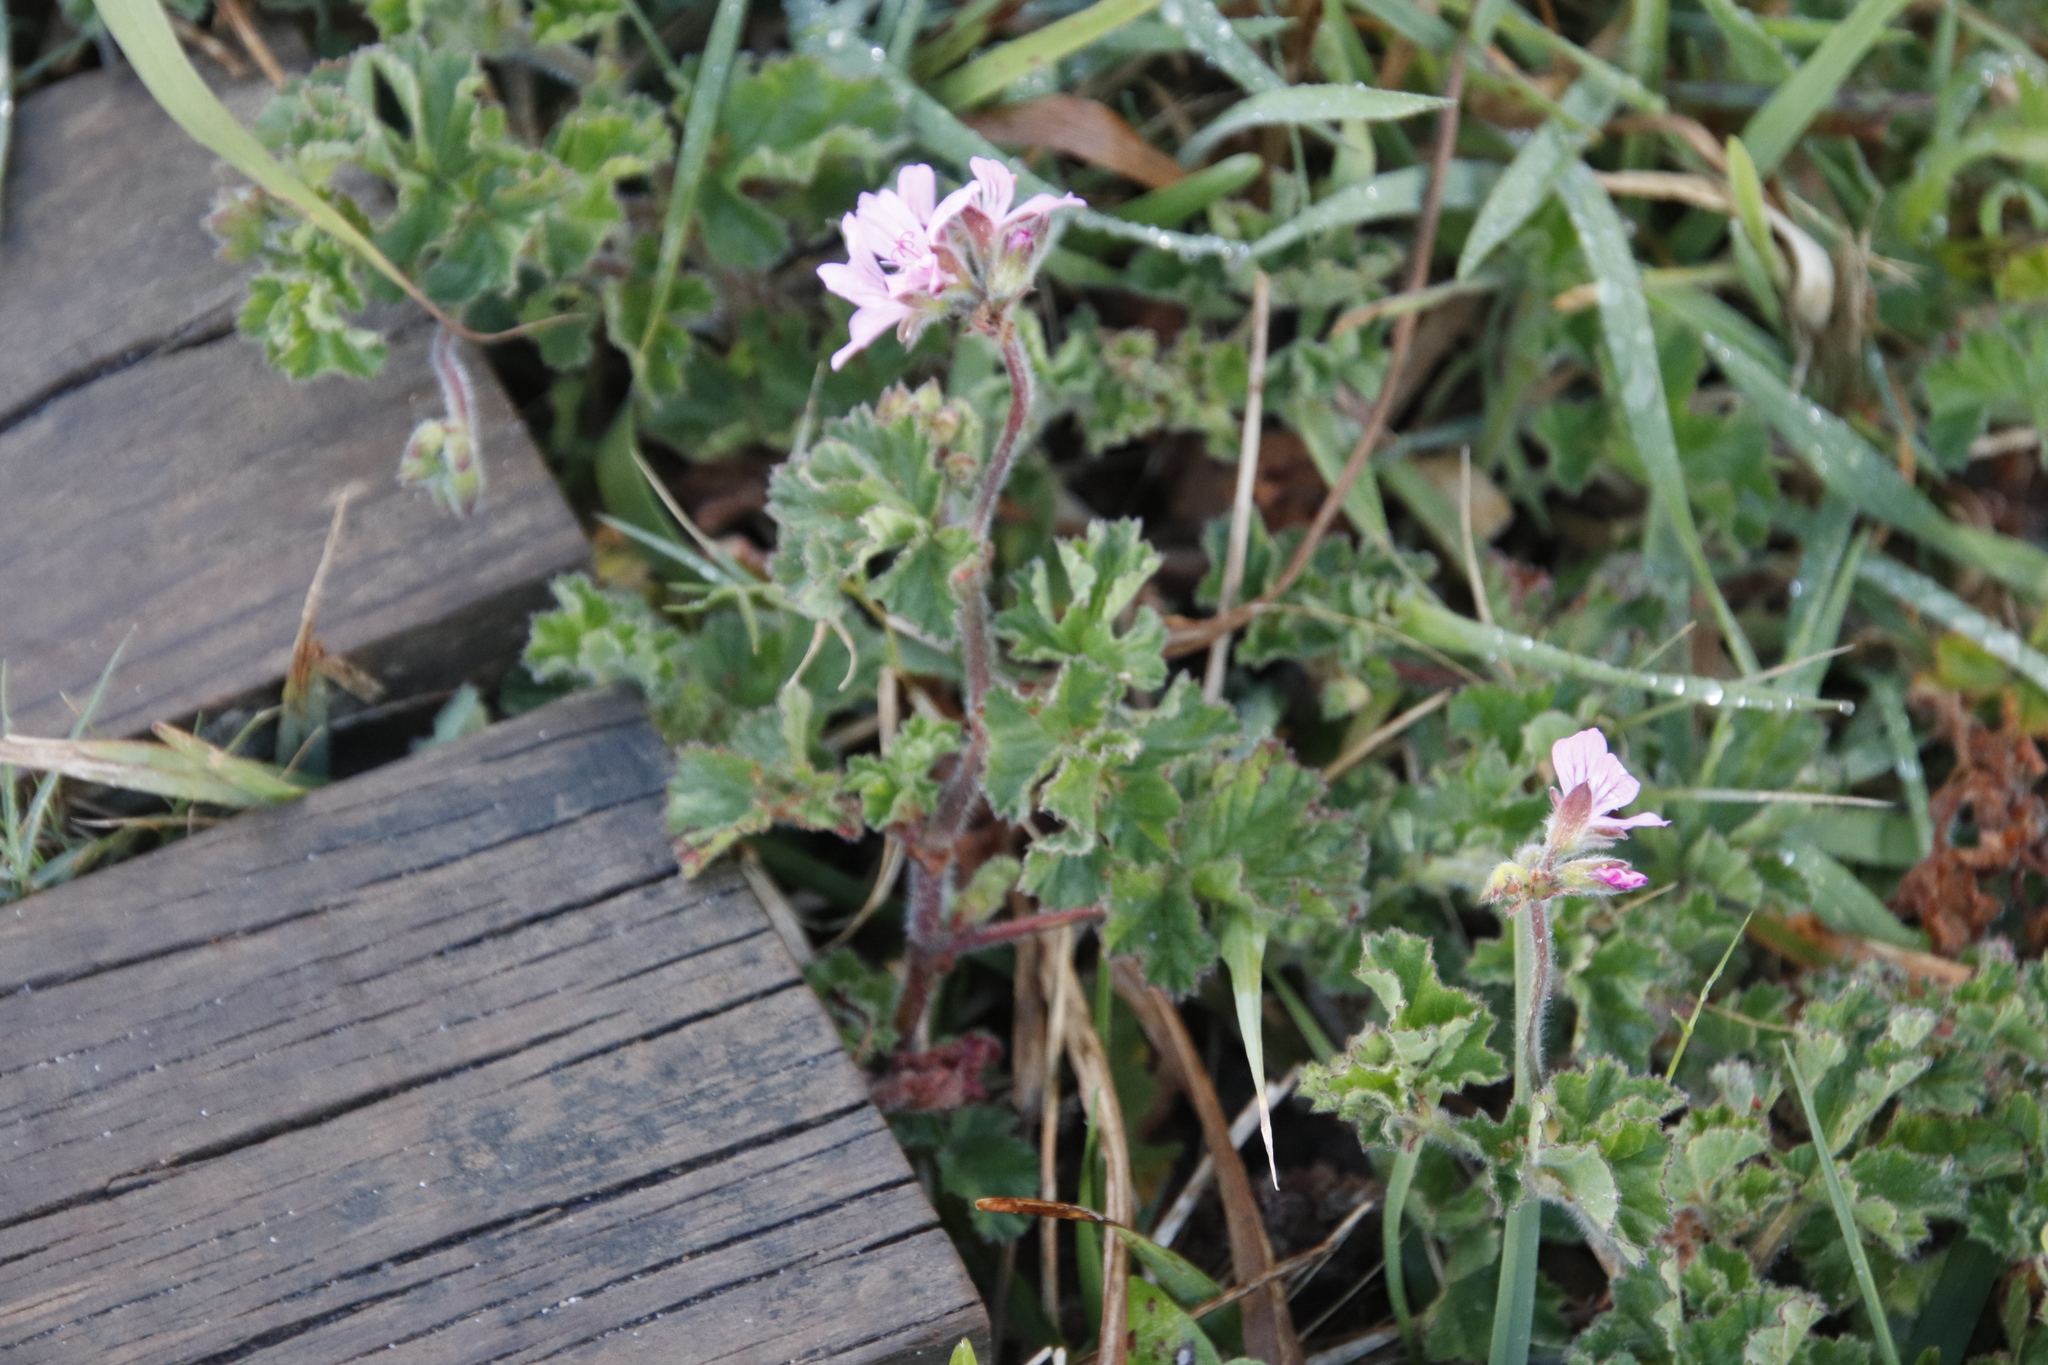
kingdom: Plantae
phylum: Tracheophyta
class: Magnoliopsida
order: Geraniales
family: Geraniaceae
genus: Pelargonium
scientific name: Pelargonium capitatum
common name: Rose scented geranium
